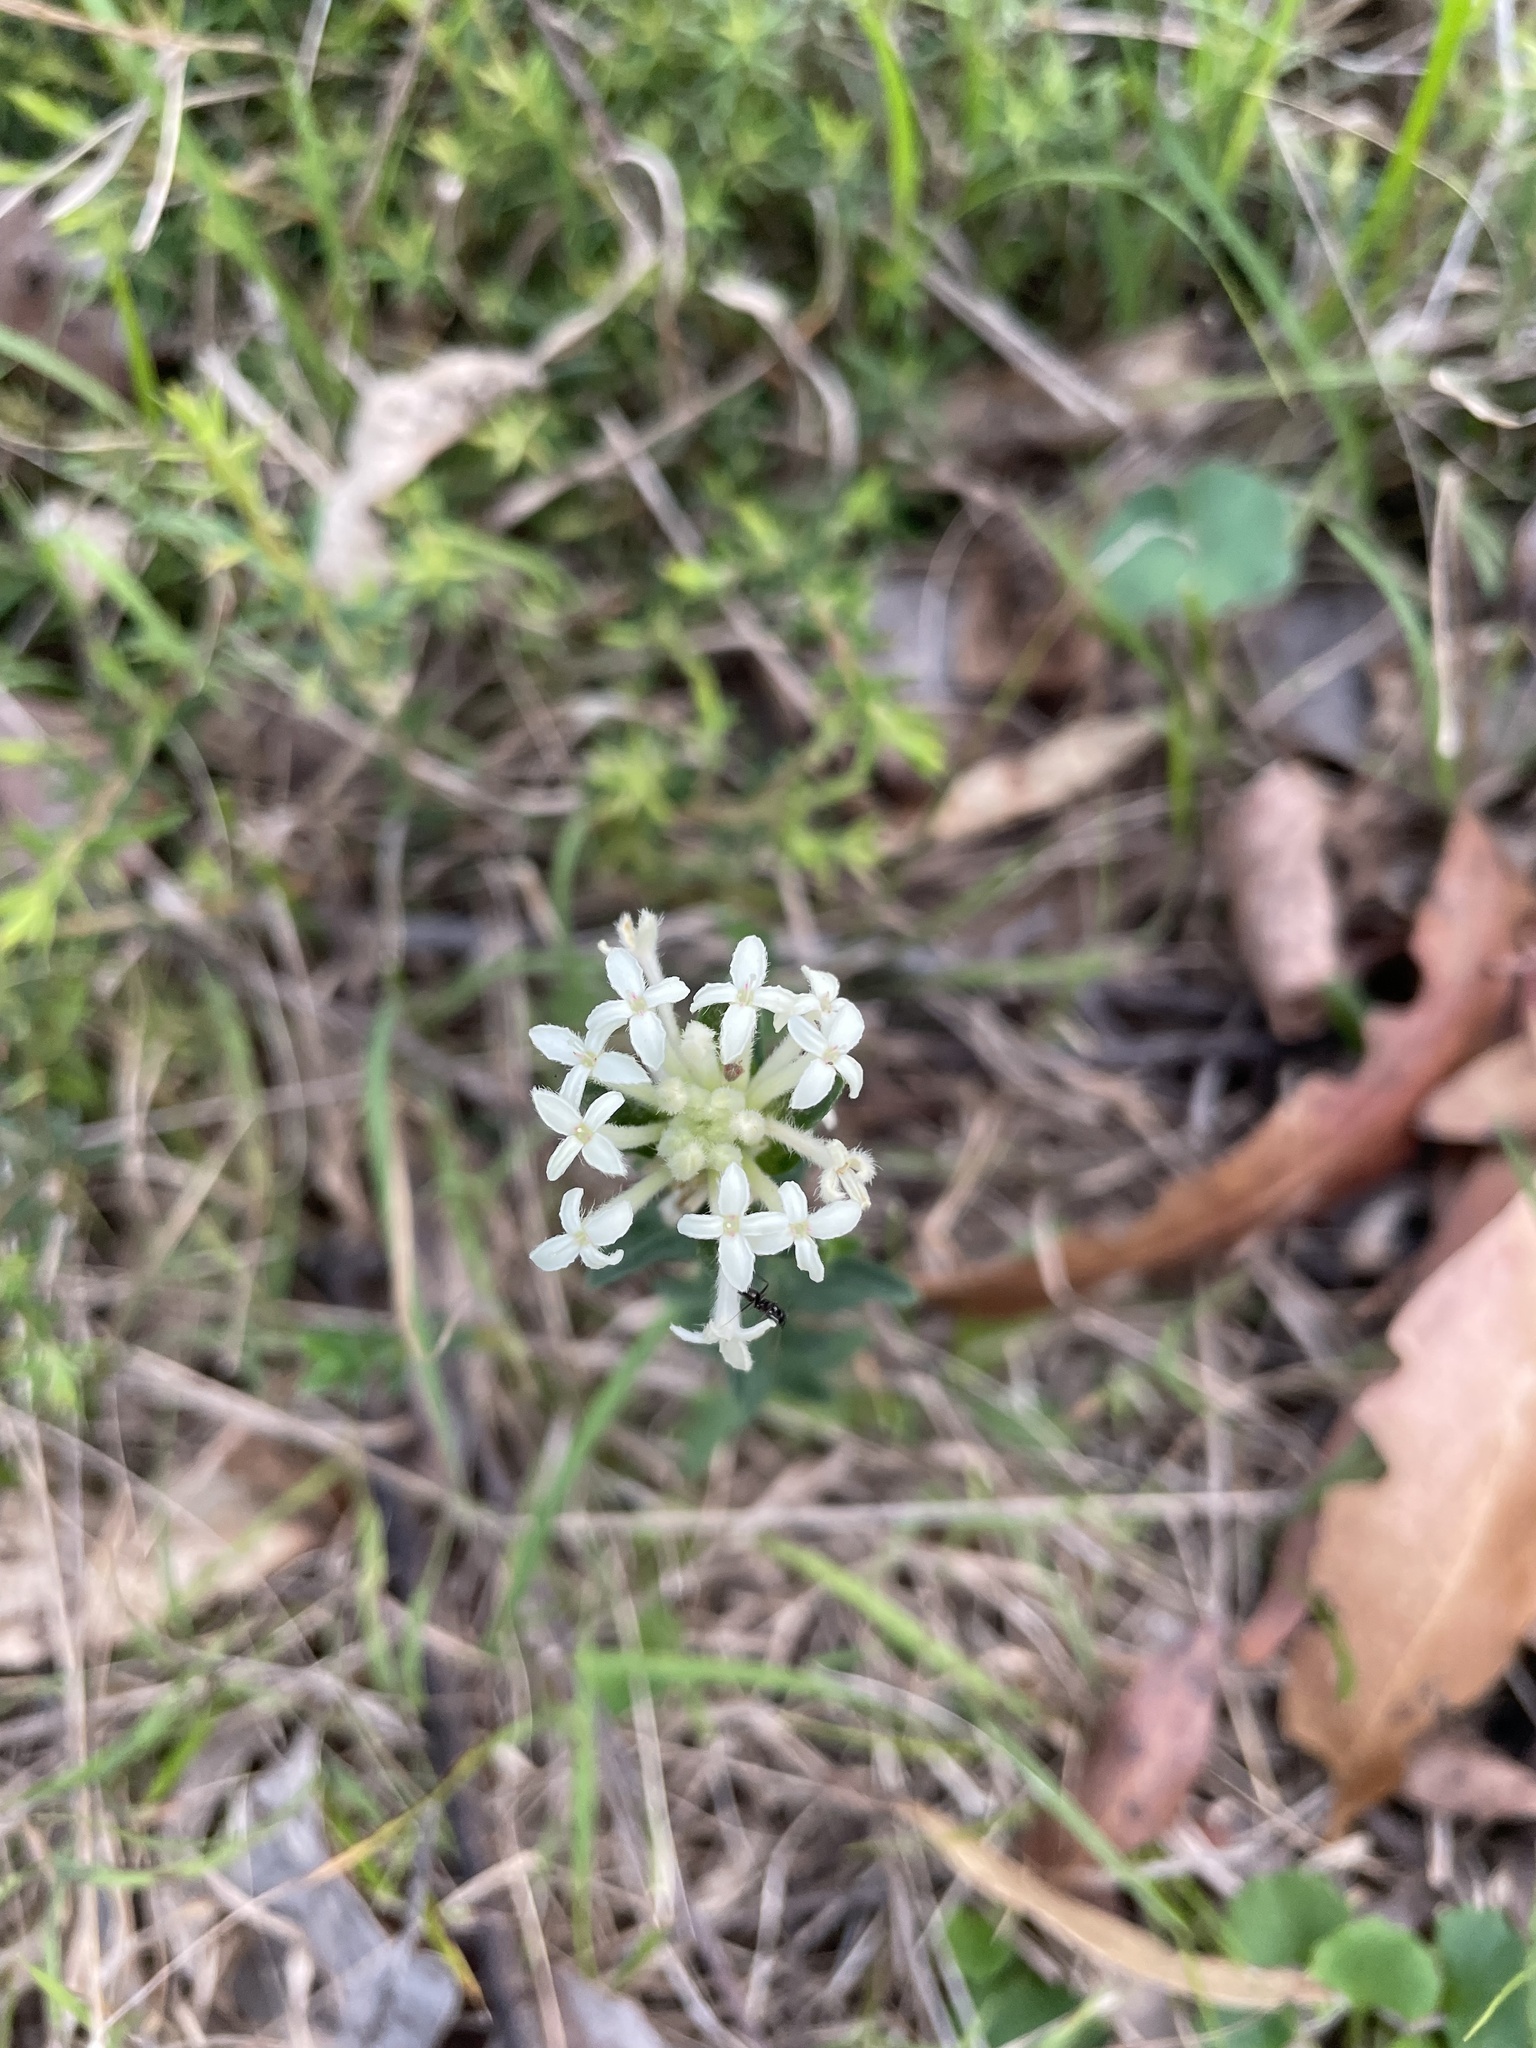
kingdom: Plantae
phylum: Tracheophyta
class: Magnoliopsida
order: Malvales
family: Thymelaeaceae
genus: Pimelea
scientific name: Pimelea humilis
